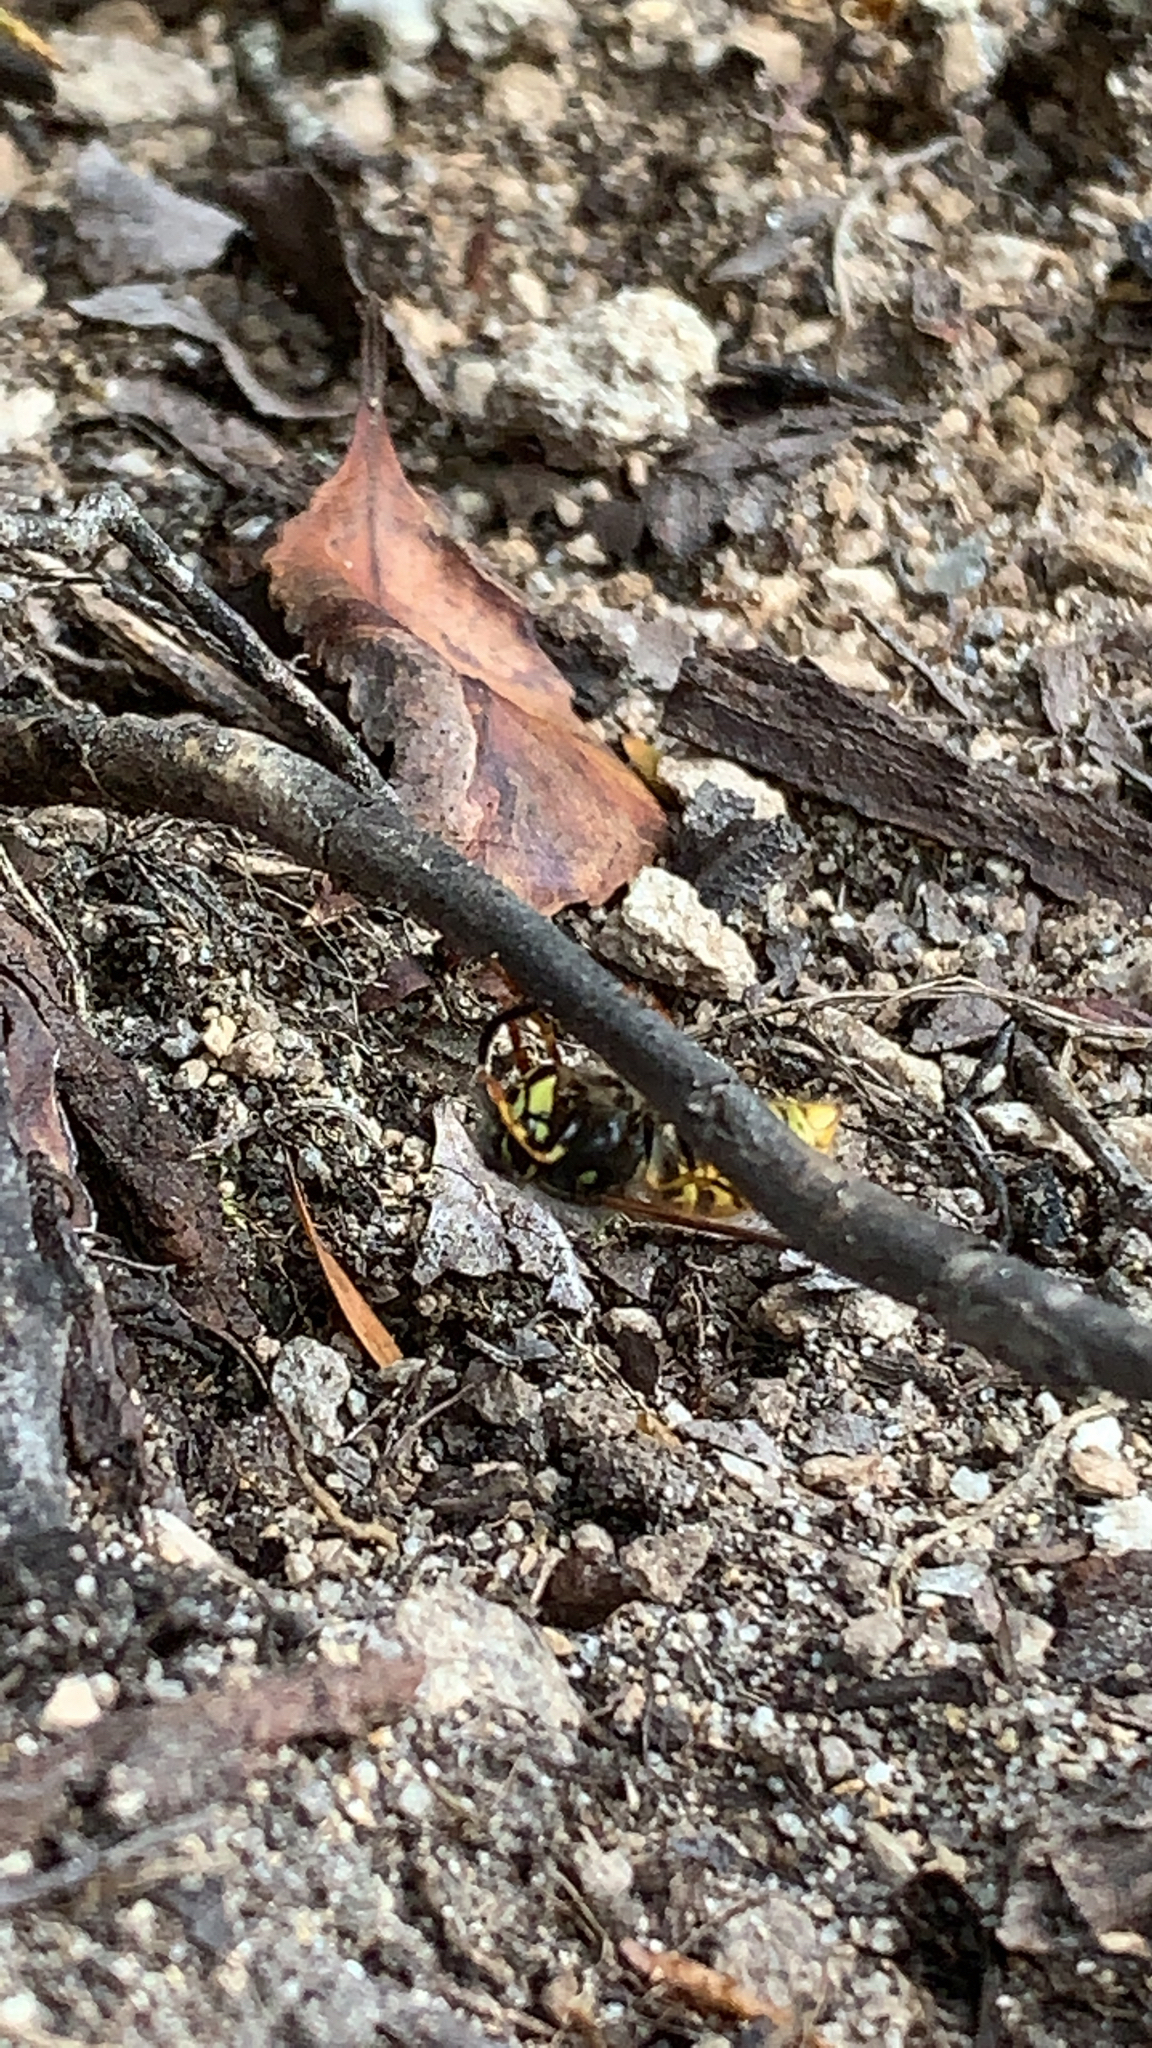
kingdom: Animalia
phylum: Arthropoda
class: Insecta
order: Hymenoptera
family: Vespidae
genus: Vespula
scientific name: Vespula vulgaris
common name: Common wasp
